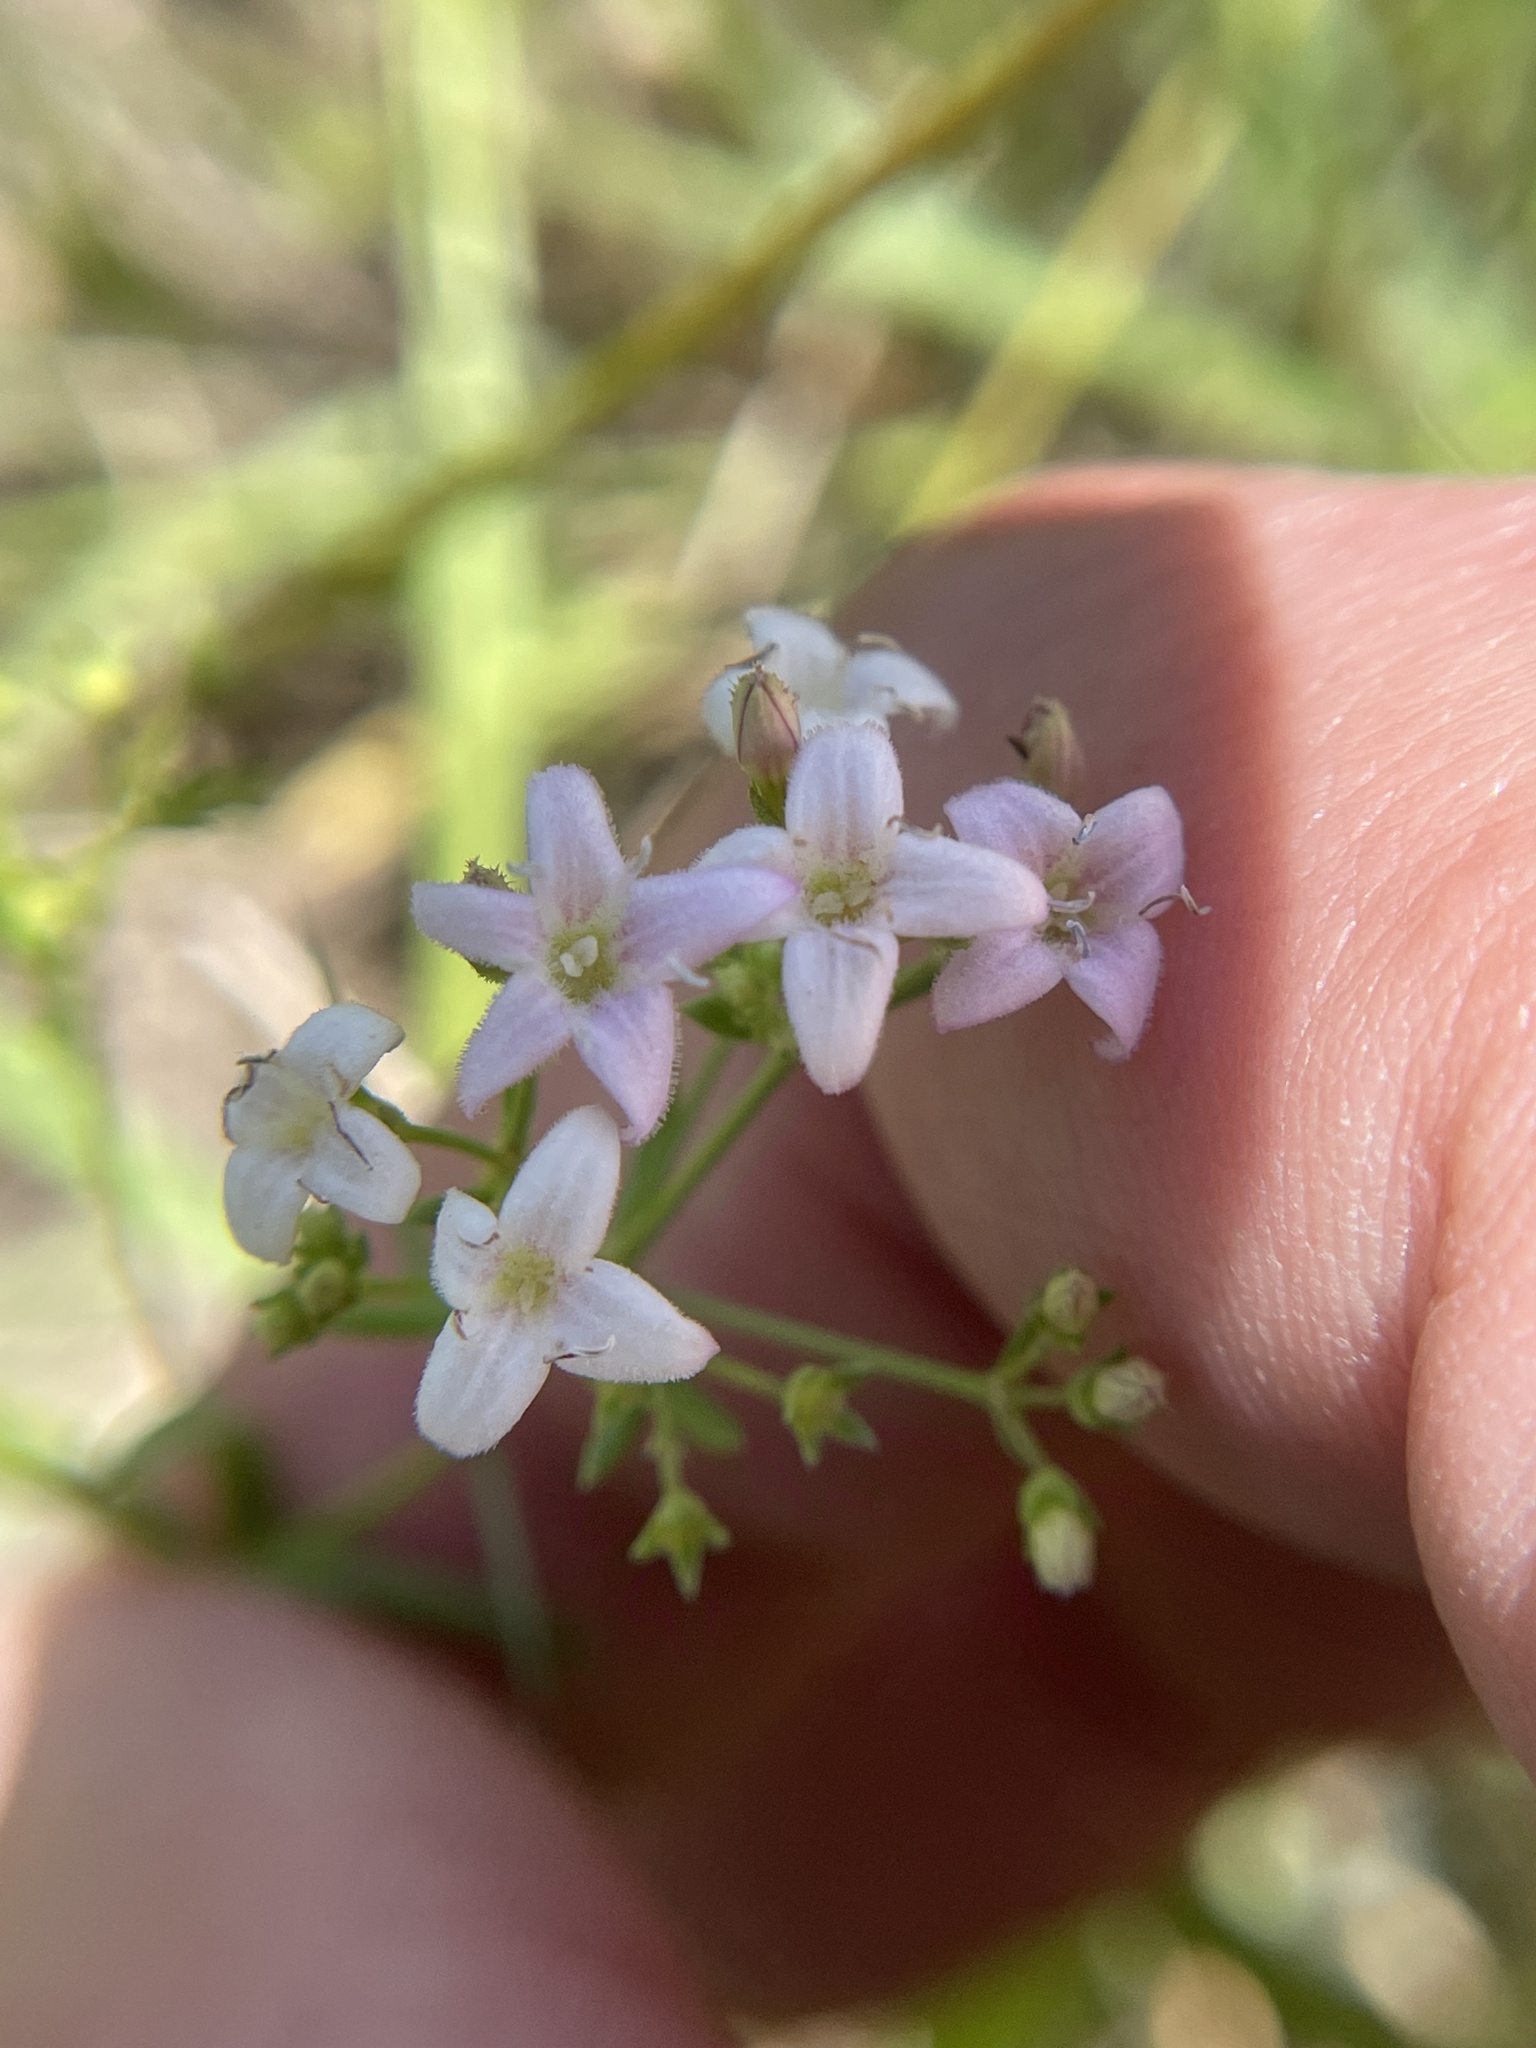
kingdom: Plantae
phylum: Tracheophyta
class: Magnoliopsida
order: Gentianales
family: Rubiaceae
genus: Stenaria
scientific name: Stenaria nigricans
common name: Diamondflowers
